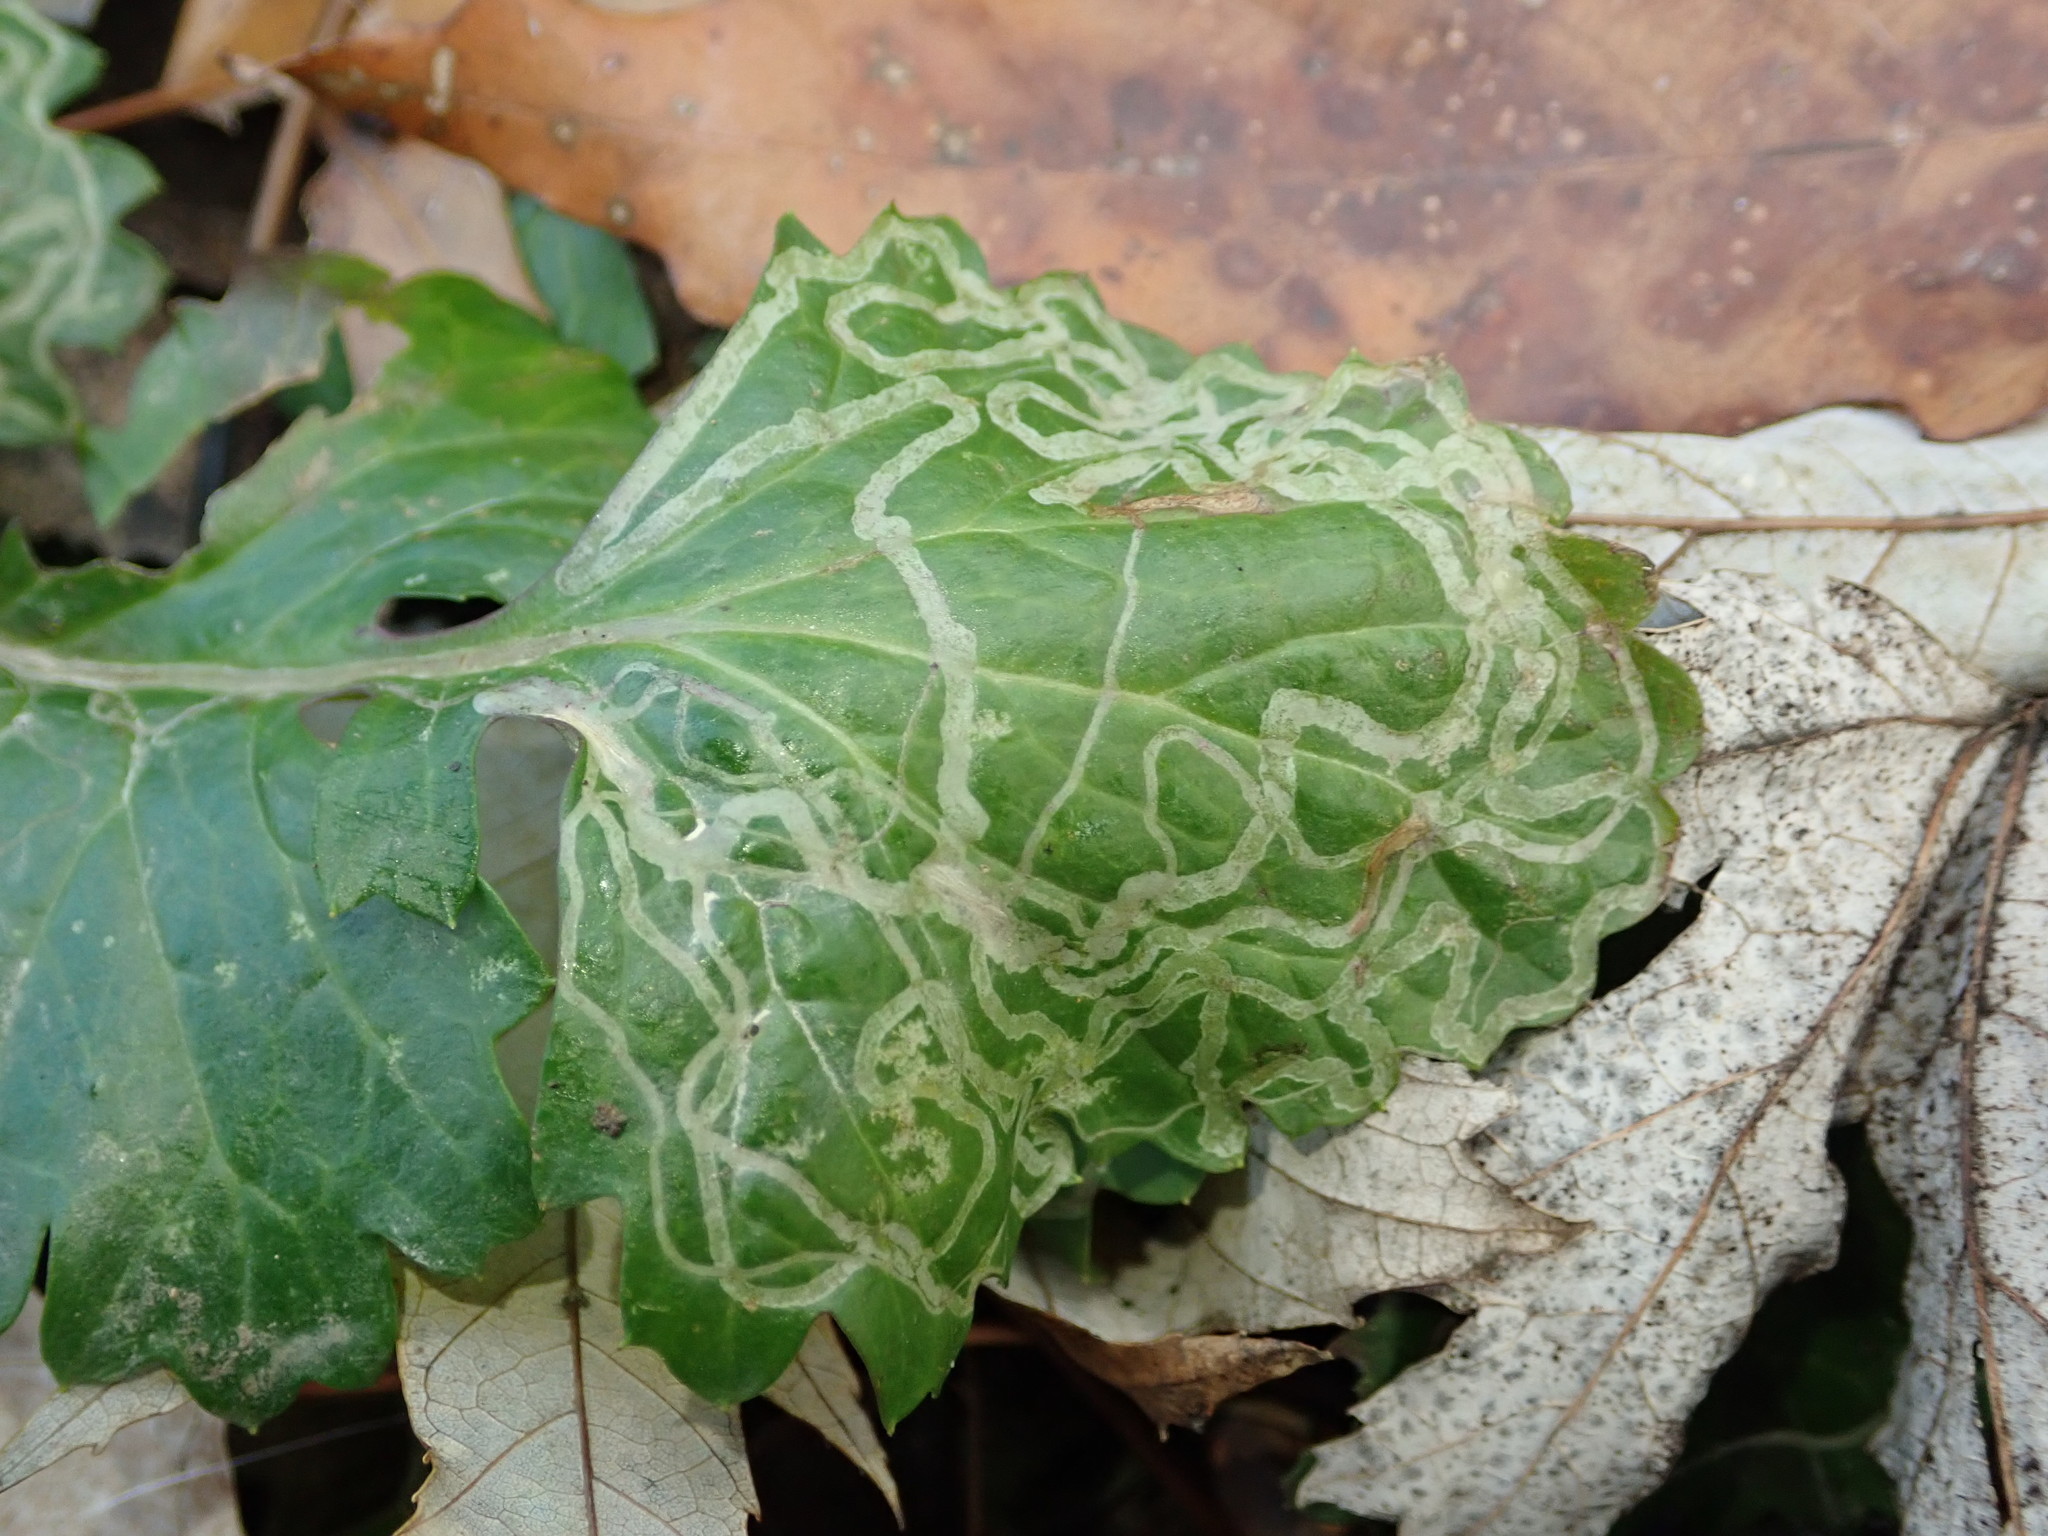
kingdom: Animalia
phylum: Arthropoda
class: Insecta
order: Lepidoptera
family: Gracillariidae
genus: Phyllocnistis
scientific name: Phyllocnistis insignis
